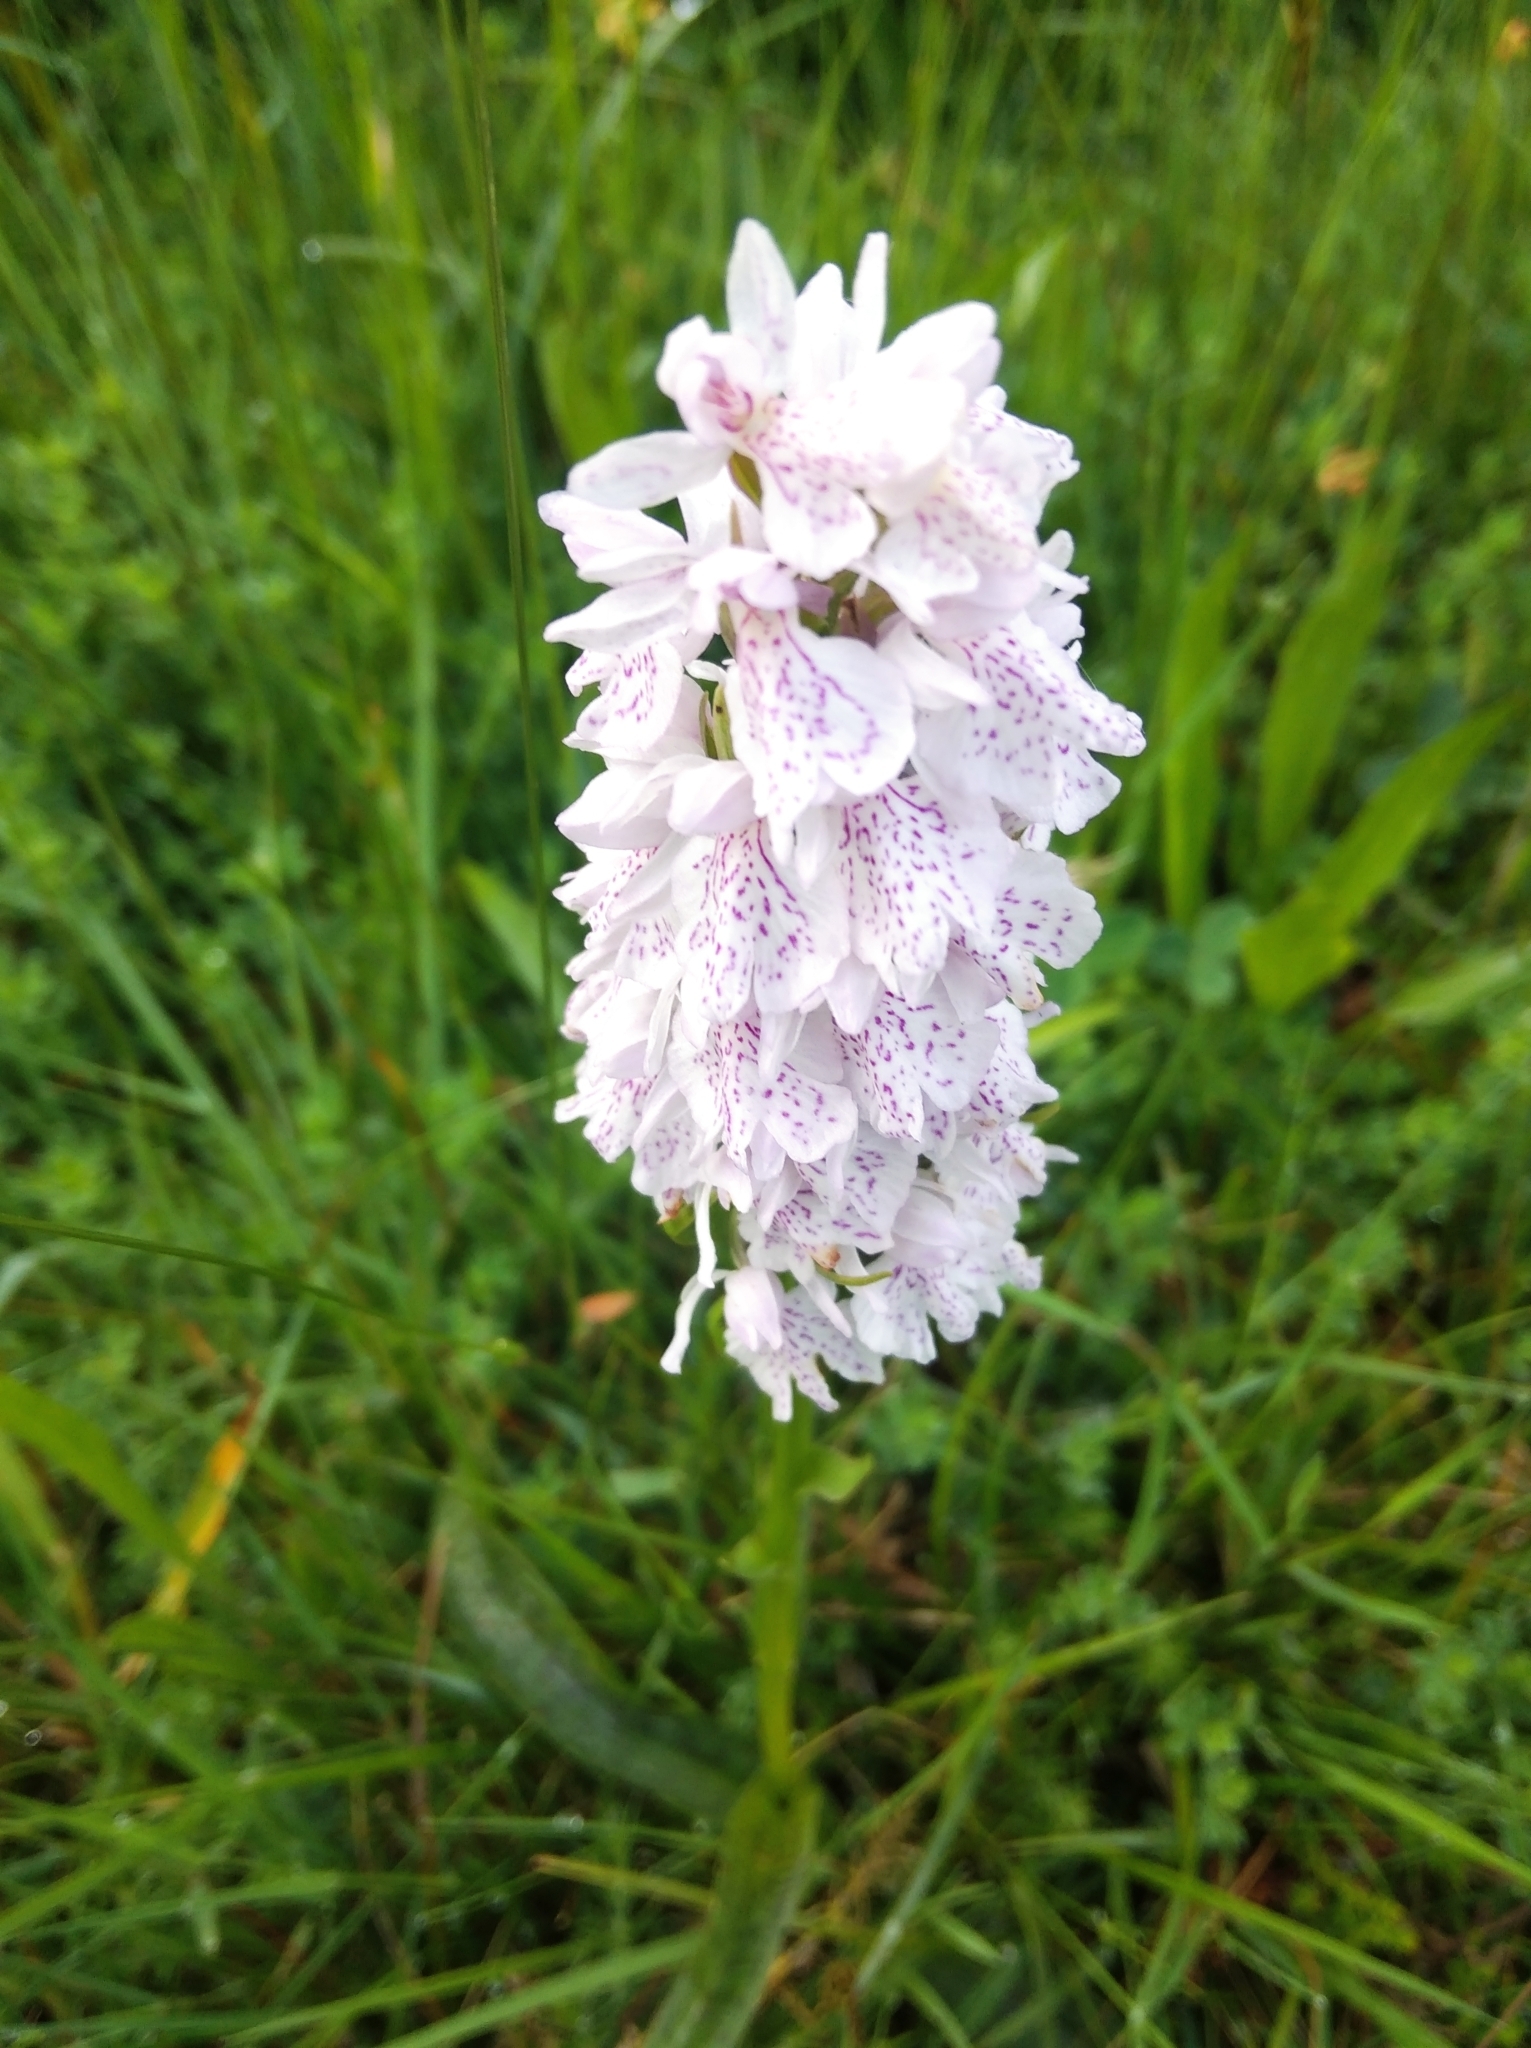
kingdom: Plantae
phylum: Tracheophyta
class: Liliopsida
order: Asparagales
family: Orchidaceae
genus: Dactylorhiza
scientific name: Dactylorhiza maculata
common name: Heath spotted-orchid
